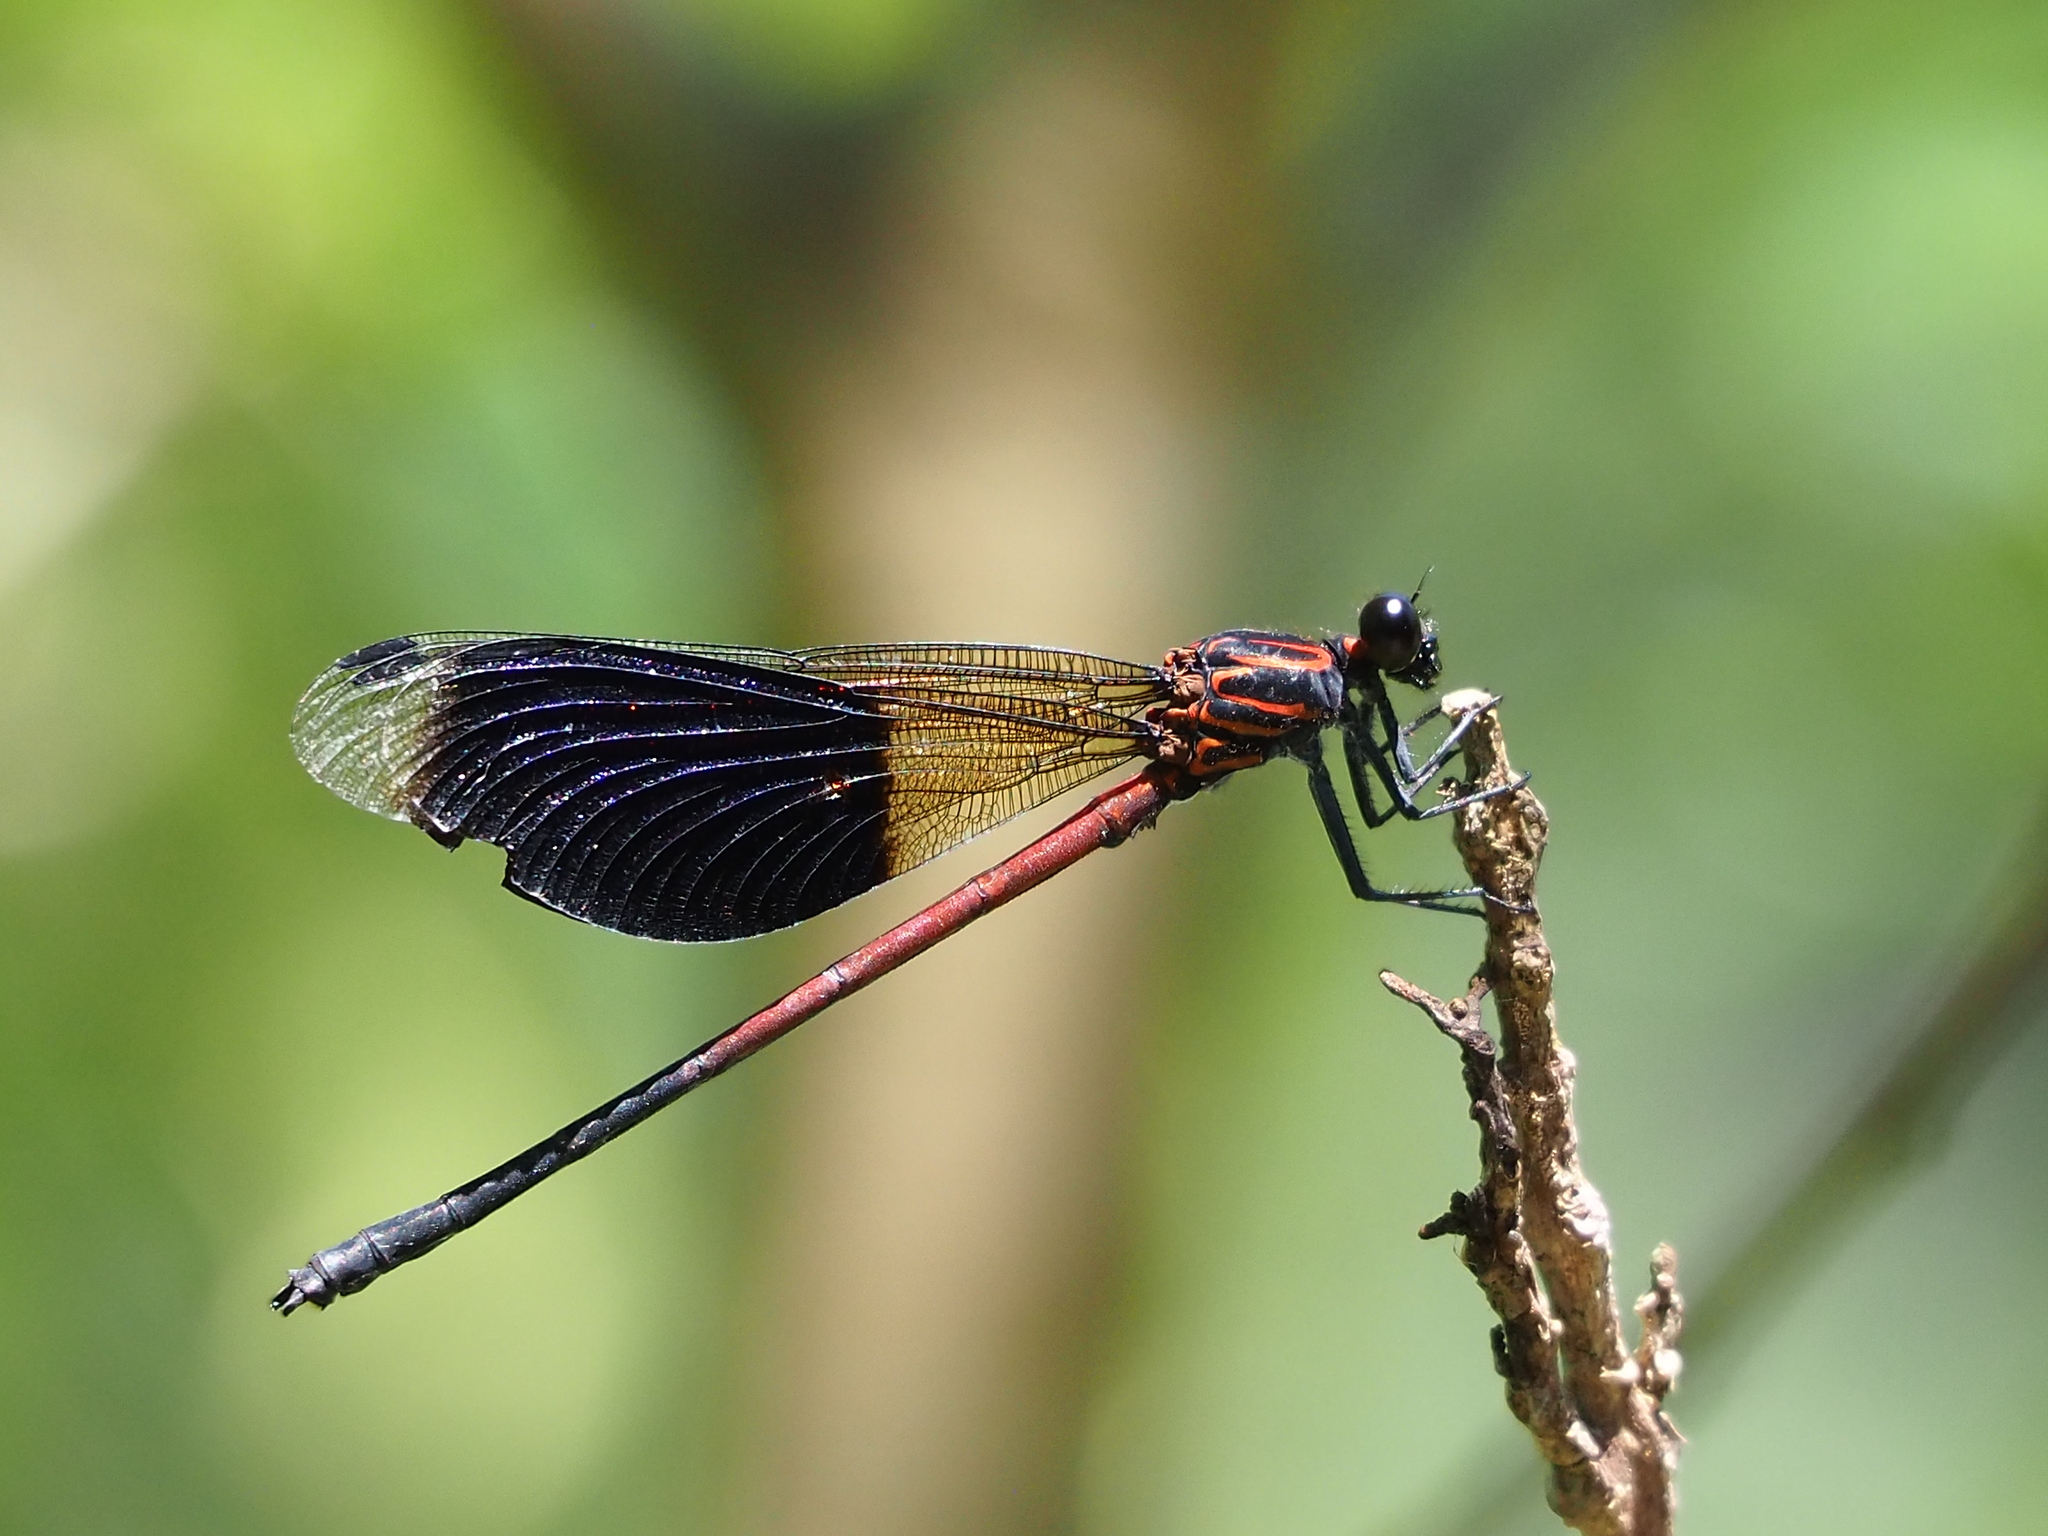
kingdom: Animalia
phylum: Arthropoda
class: Insecta
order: Odonata
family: Euphaeidae
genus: Euphaea
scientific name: Euphaea formosa
